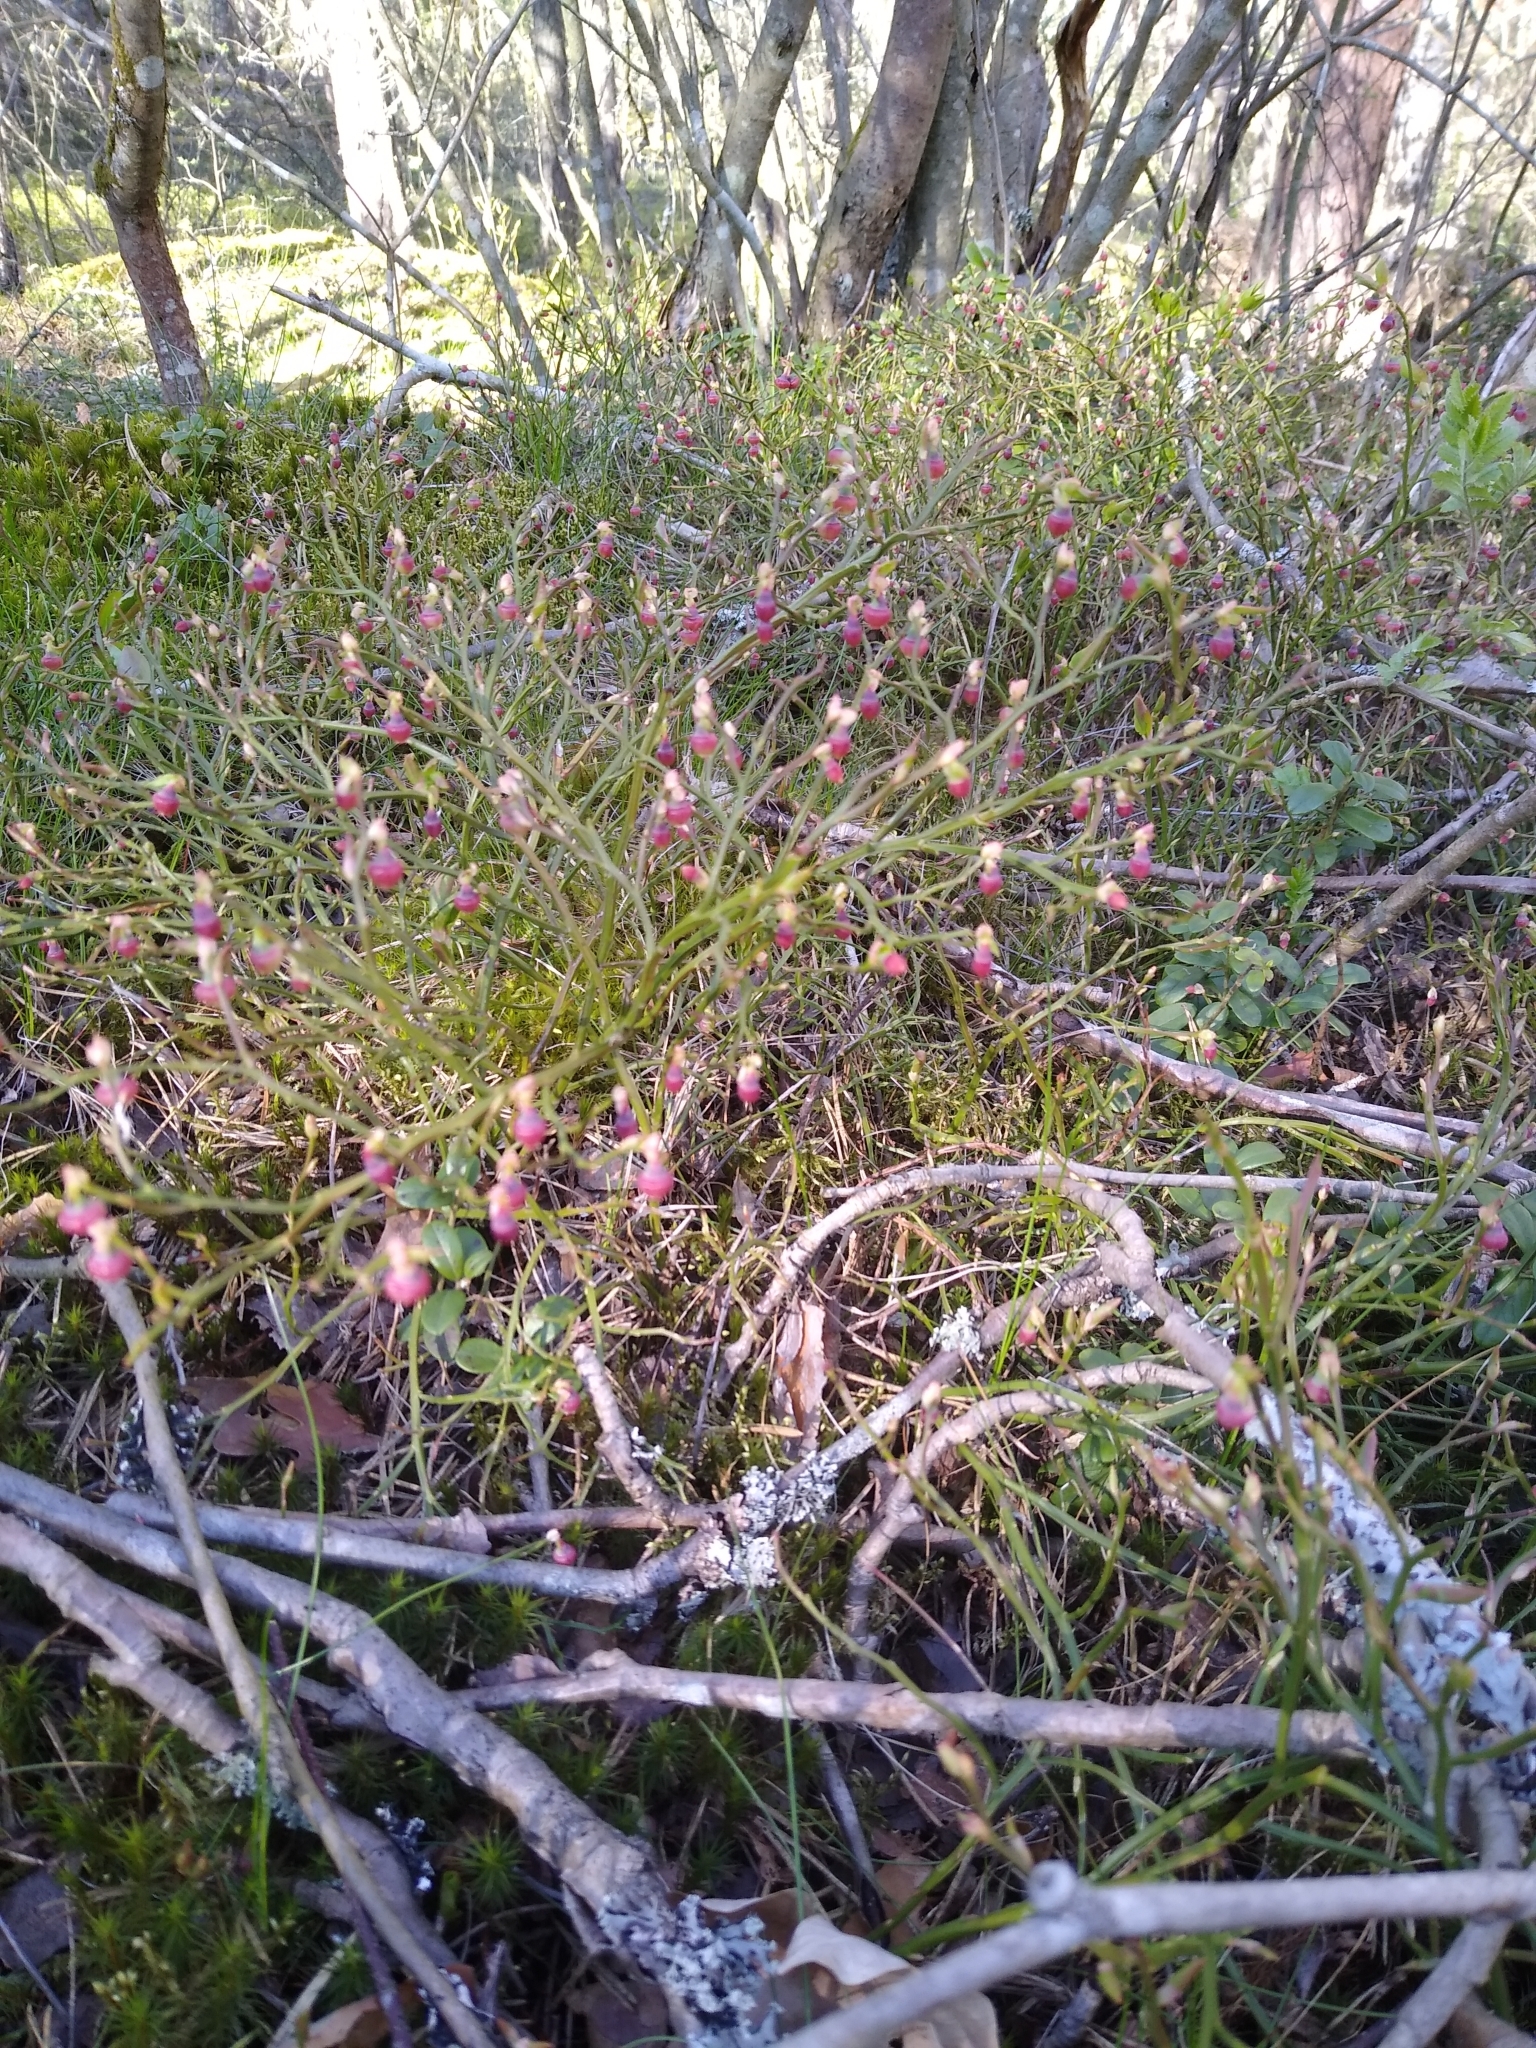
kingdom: Plantae
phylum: Tracheophyta
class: Magnoliopsida
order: Ericales
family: Ericaceae
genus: Vaccinium
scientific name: Vaccinium myrtillus
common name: Bilberry
